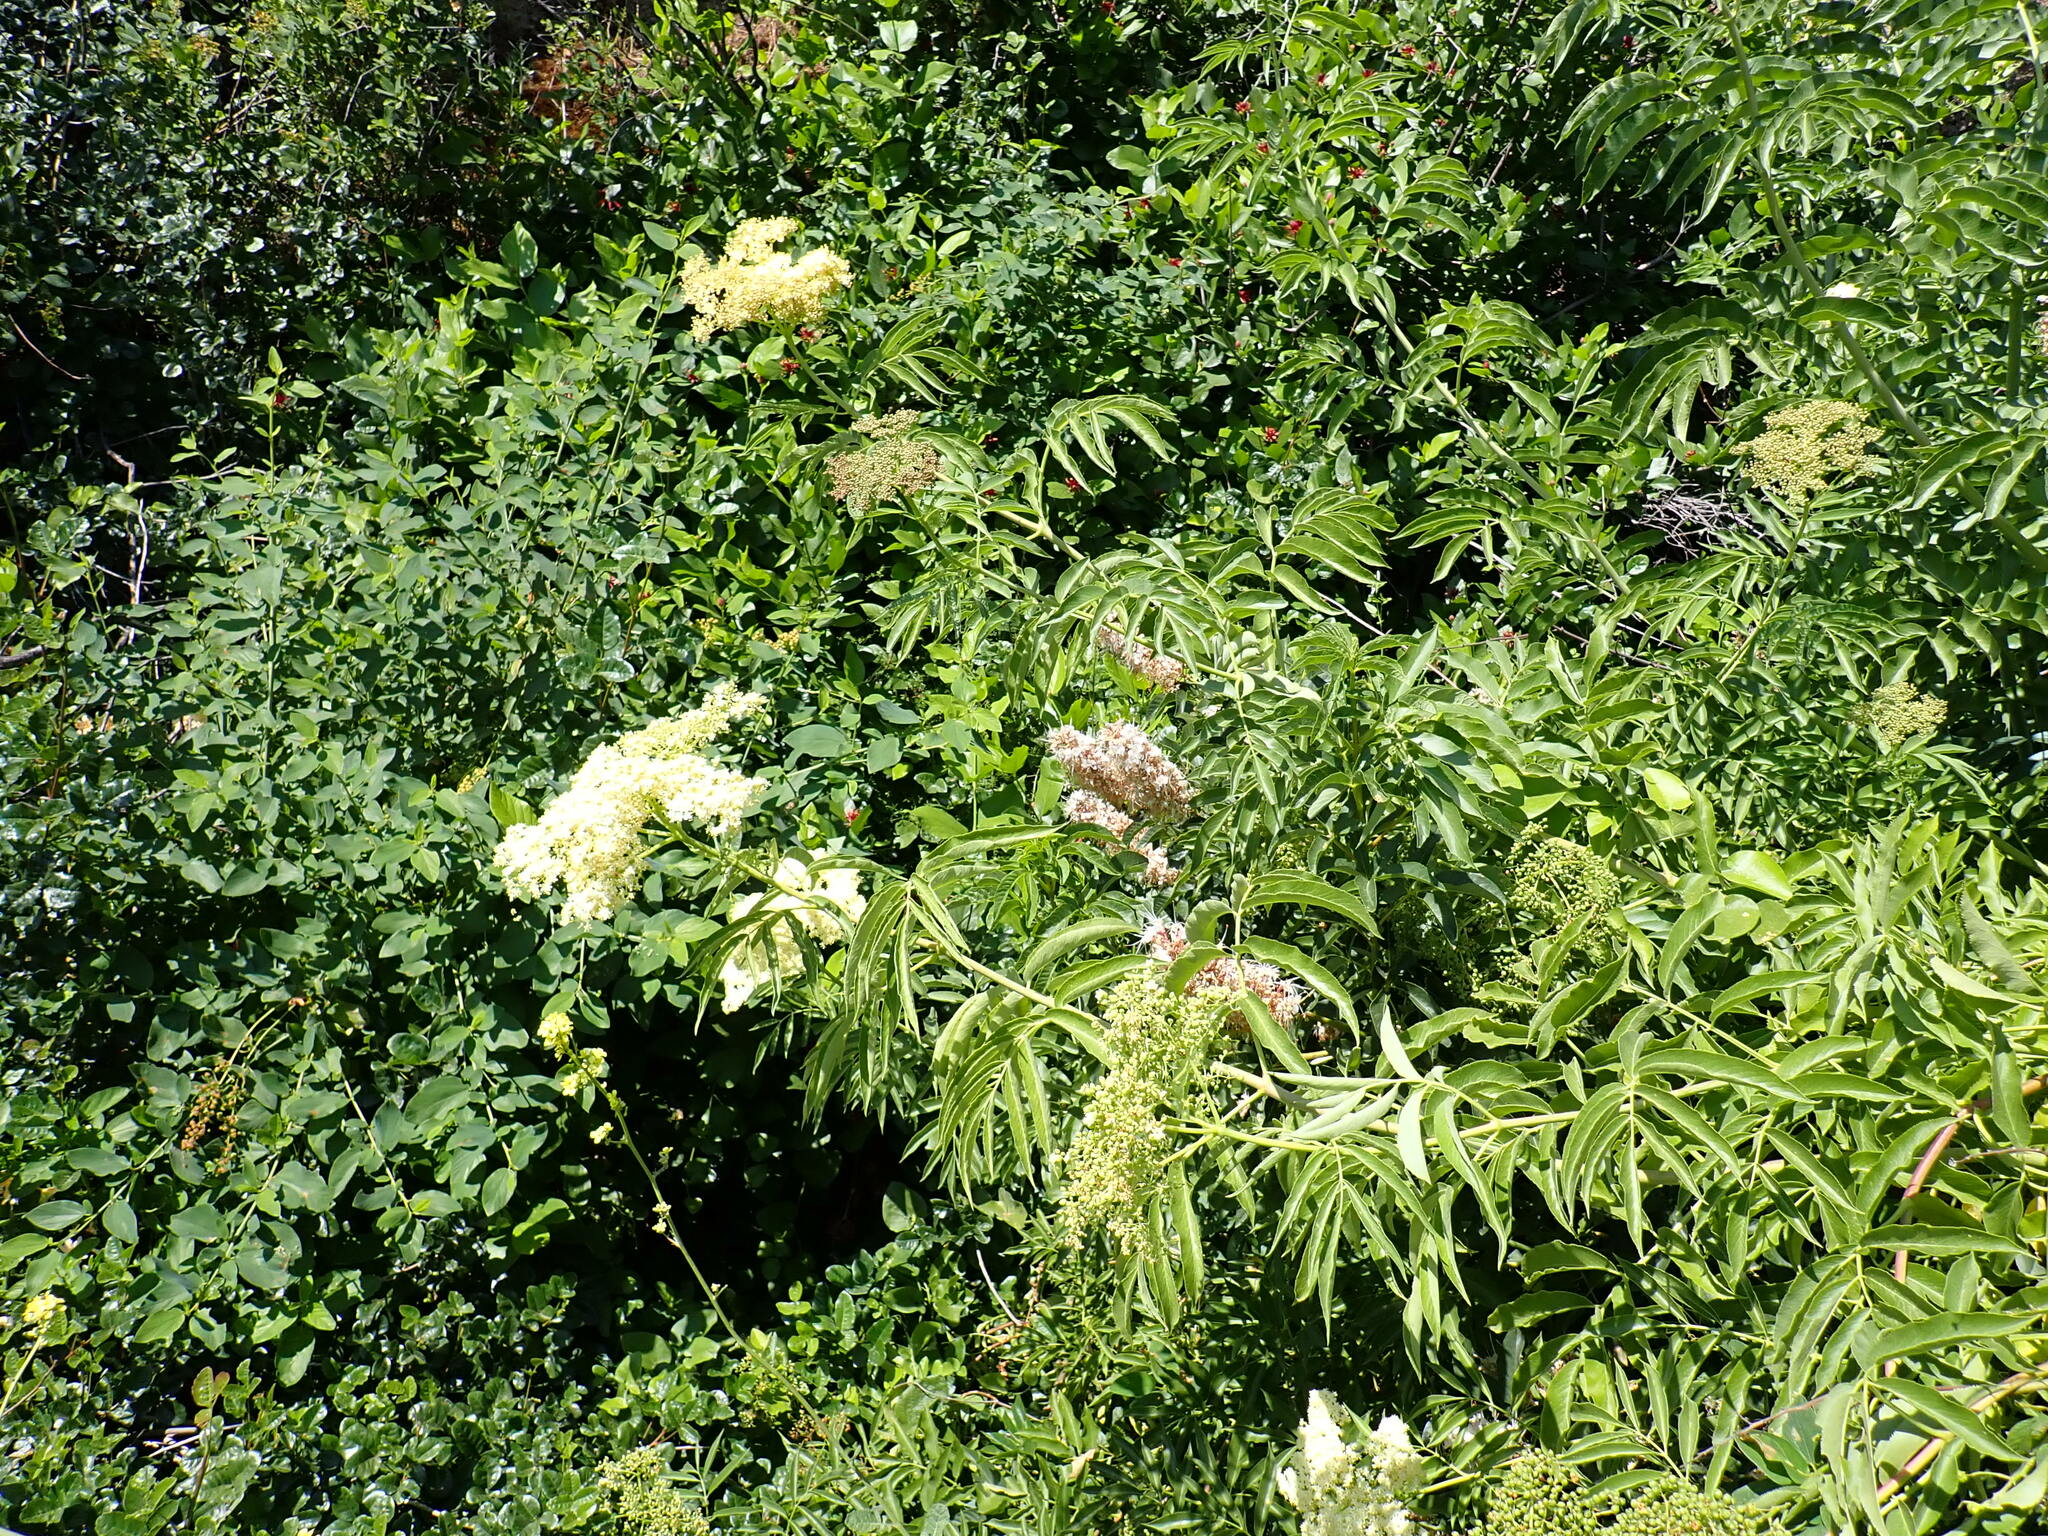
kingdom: Plantae
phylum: Tracheophyta
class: Magnoliopsida
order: Dipsacales
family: Viburnaceae
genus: Sambucus
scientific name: Sambucus cerulea
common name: Blue elder
